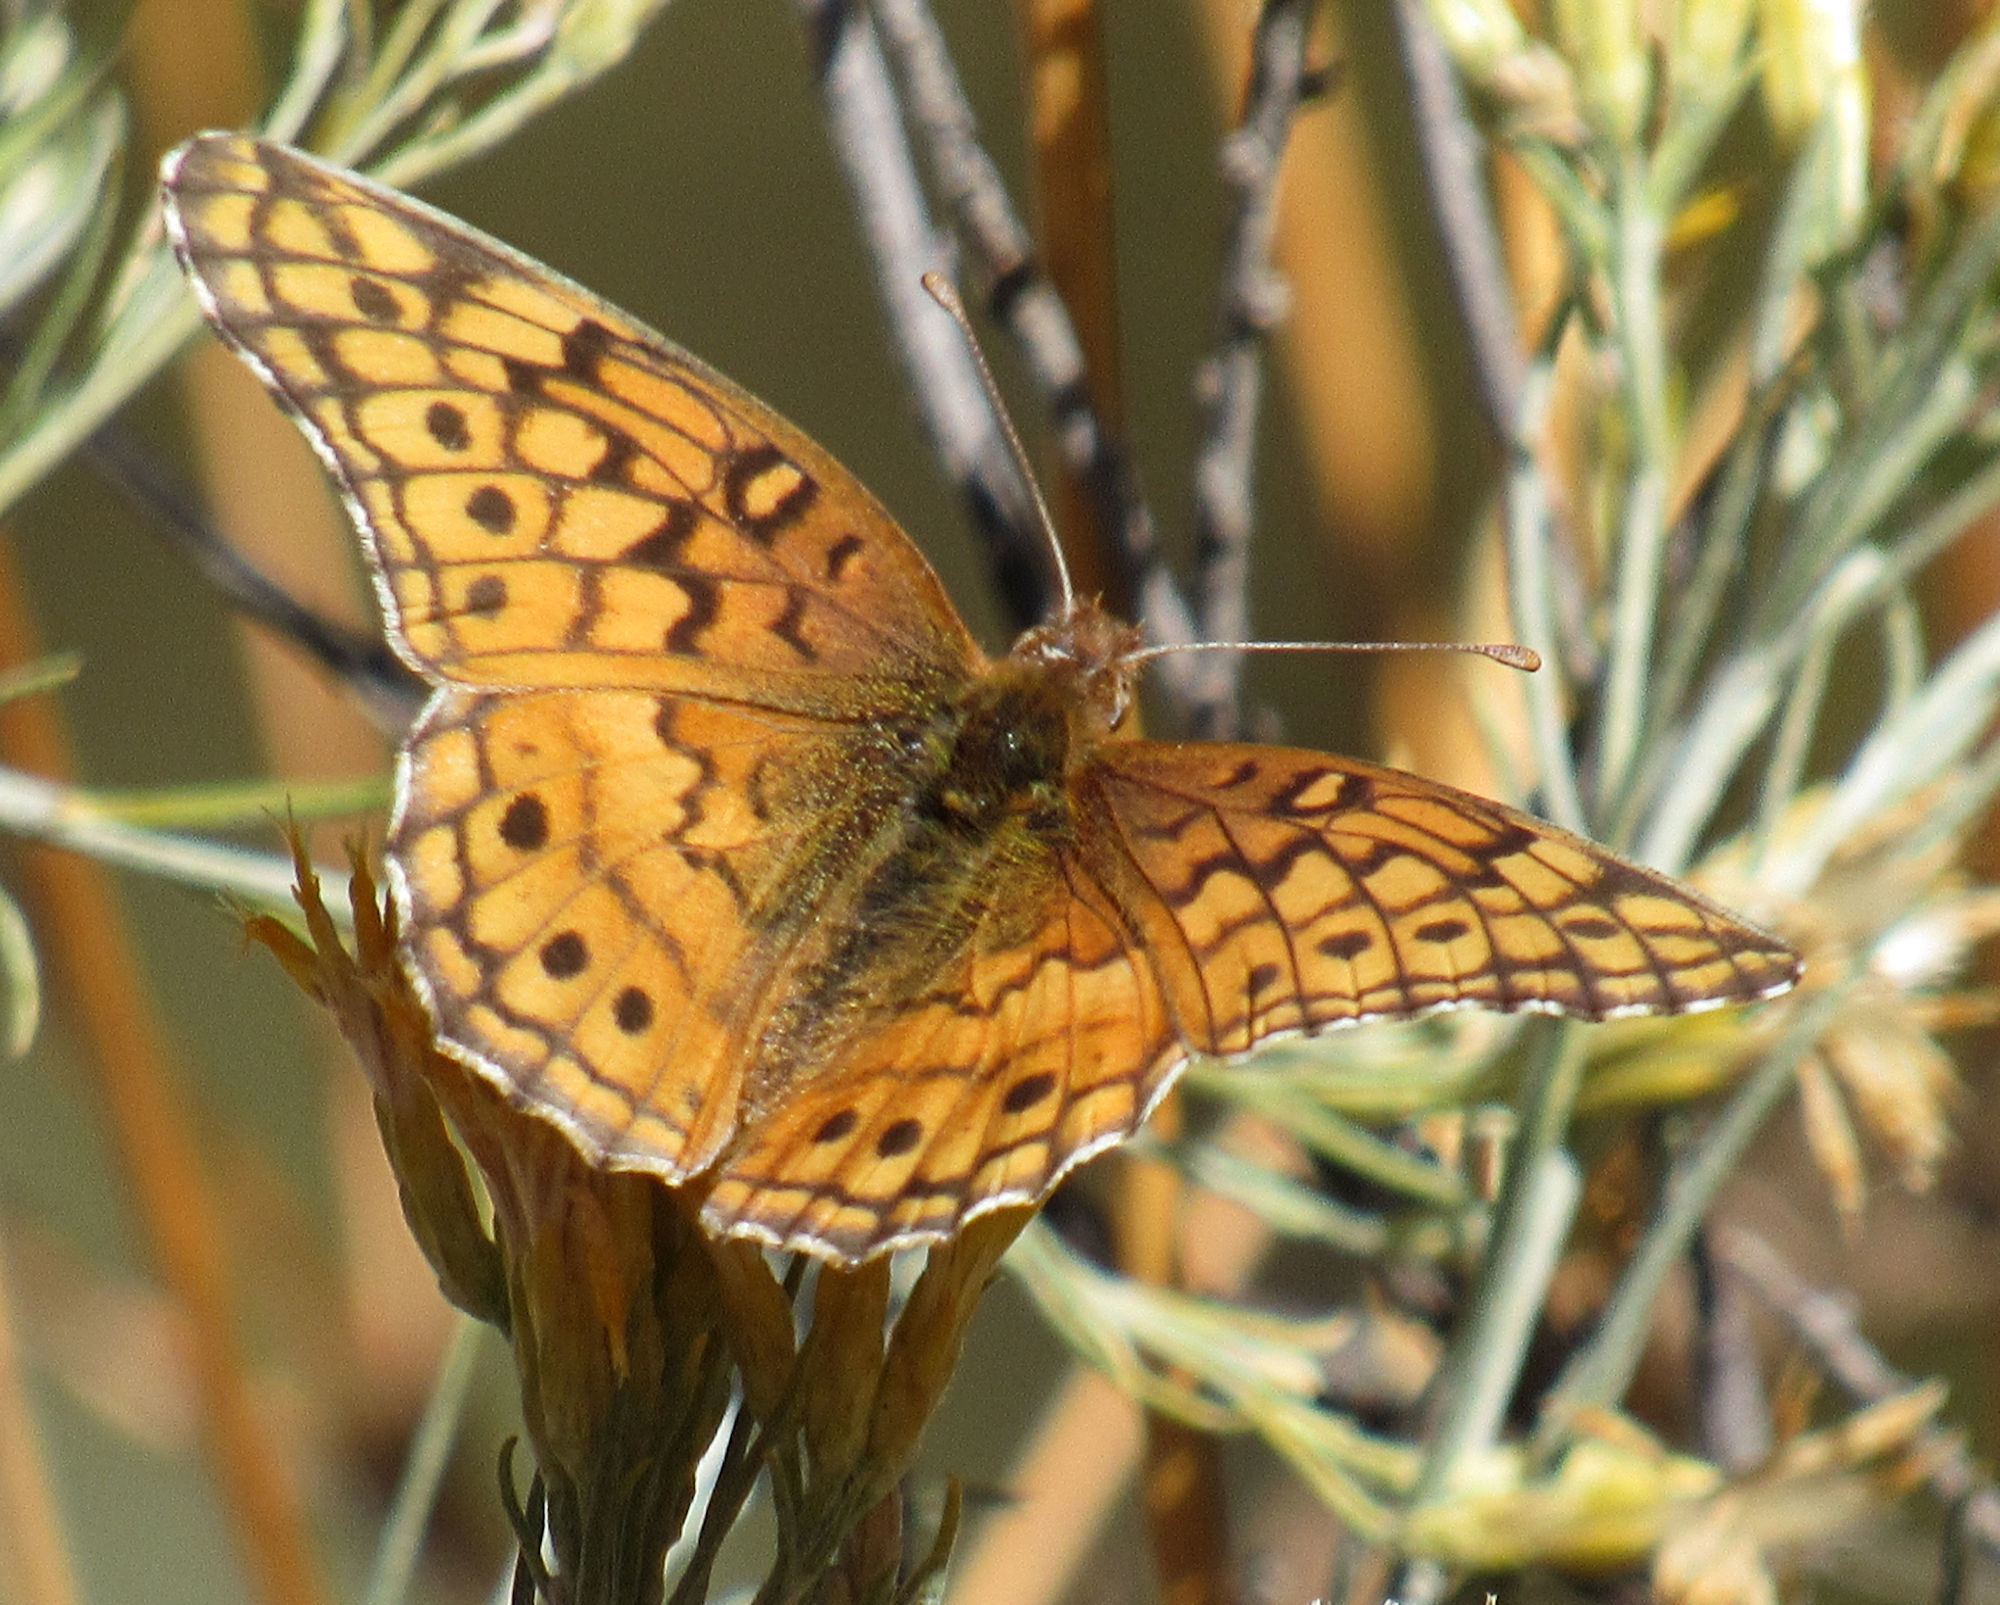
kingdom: Animalia
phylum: Arthropoda
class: Insecta
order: Lepidoptera
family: Nymphalidae
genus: Euptoieta
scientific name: Euptoieta claudia
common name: Variegated fritillary
